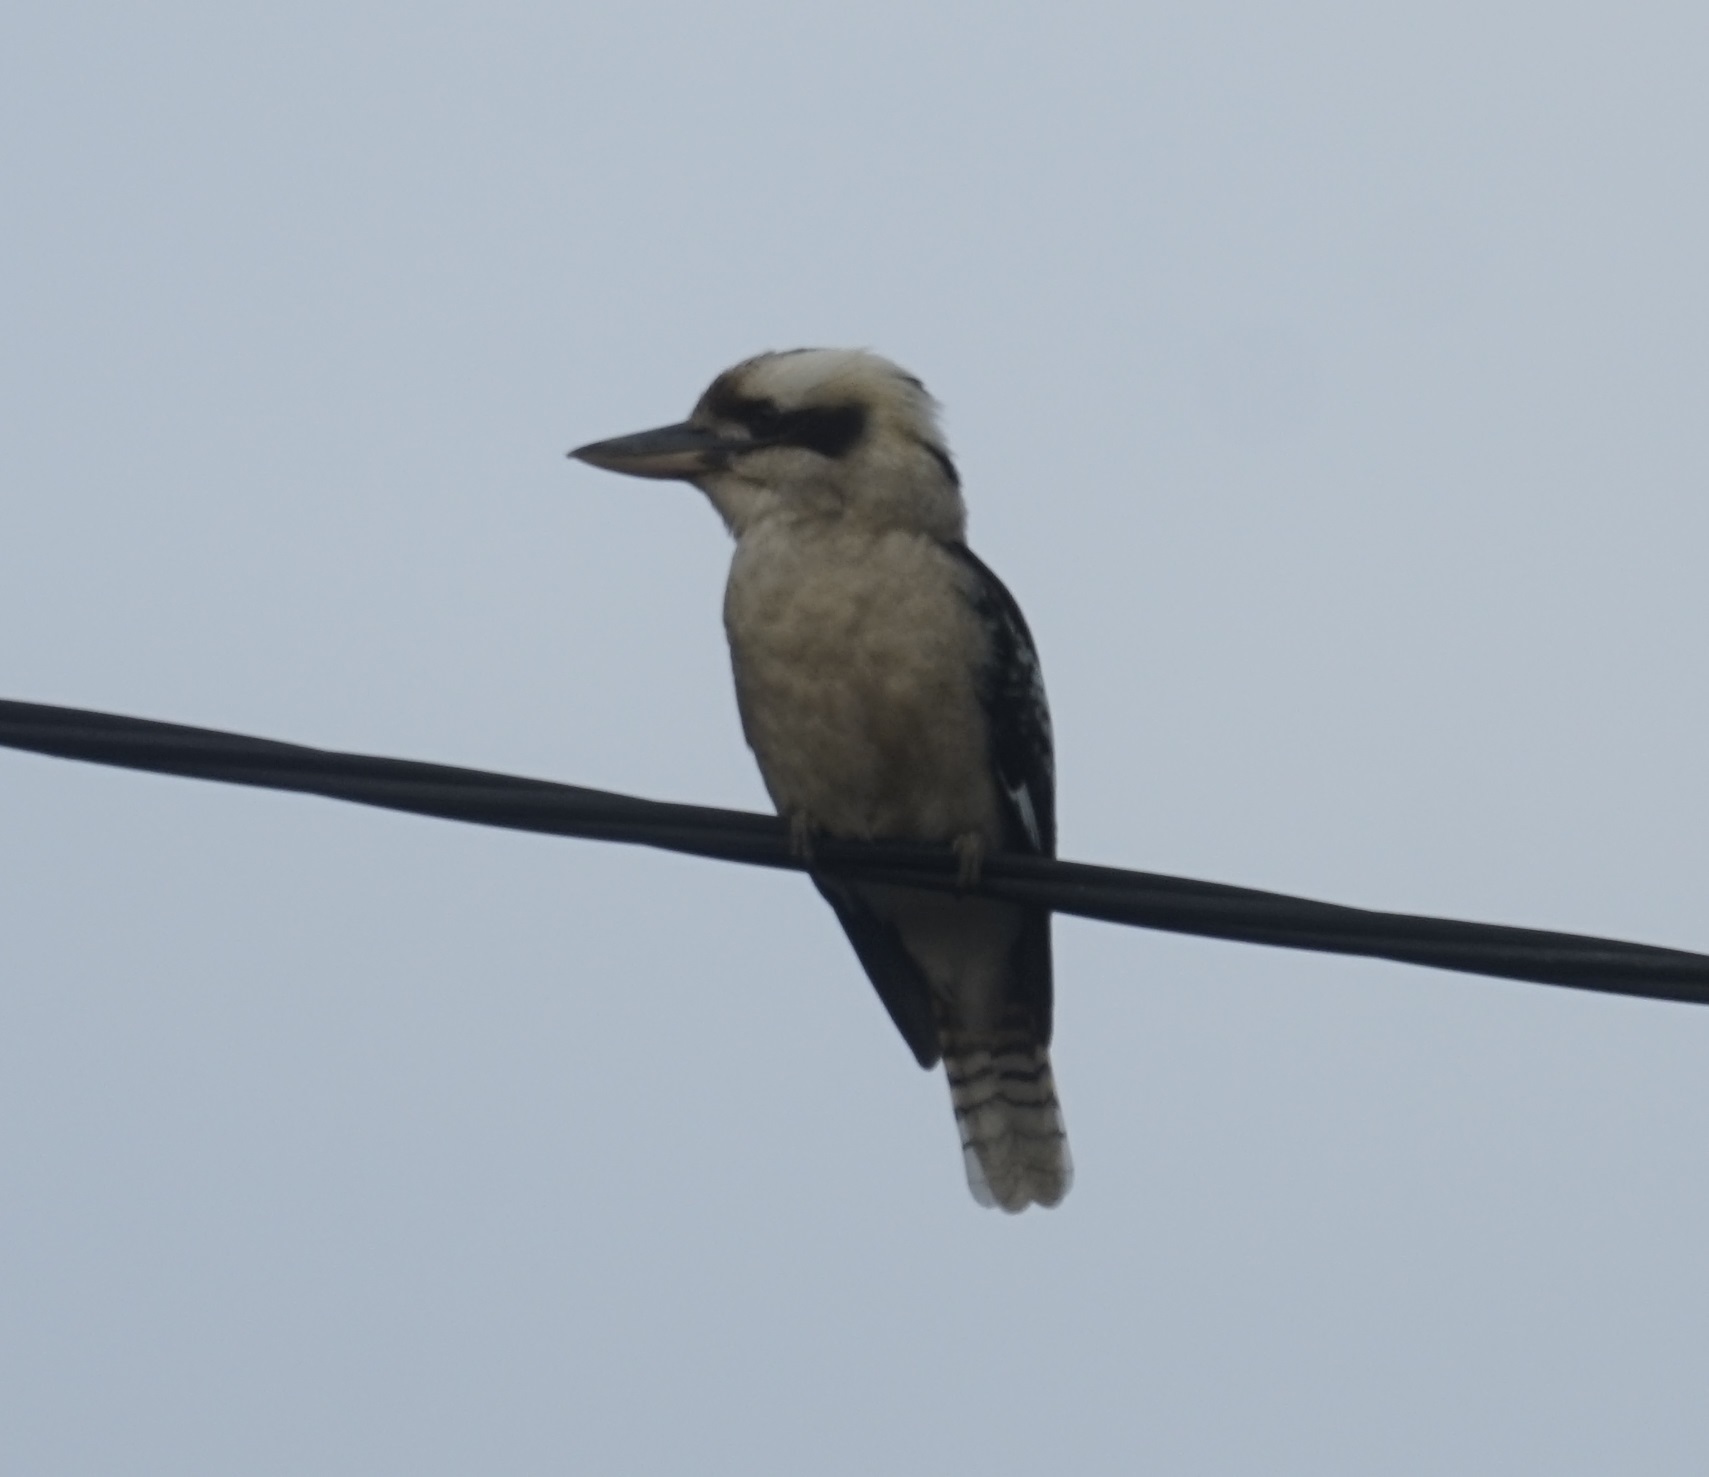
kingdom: Animalia
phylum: Chordata
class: Aves
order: Coraciiformes
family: Alcedinidae
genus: Dacelo
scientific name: Dacelo novaeguineae
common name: Laughing kookaburra
